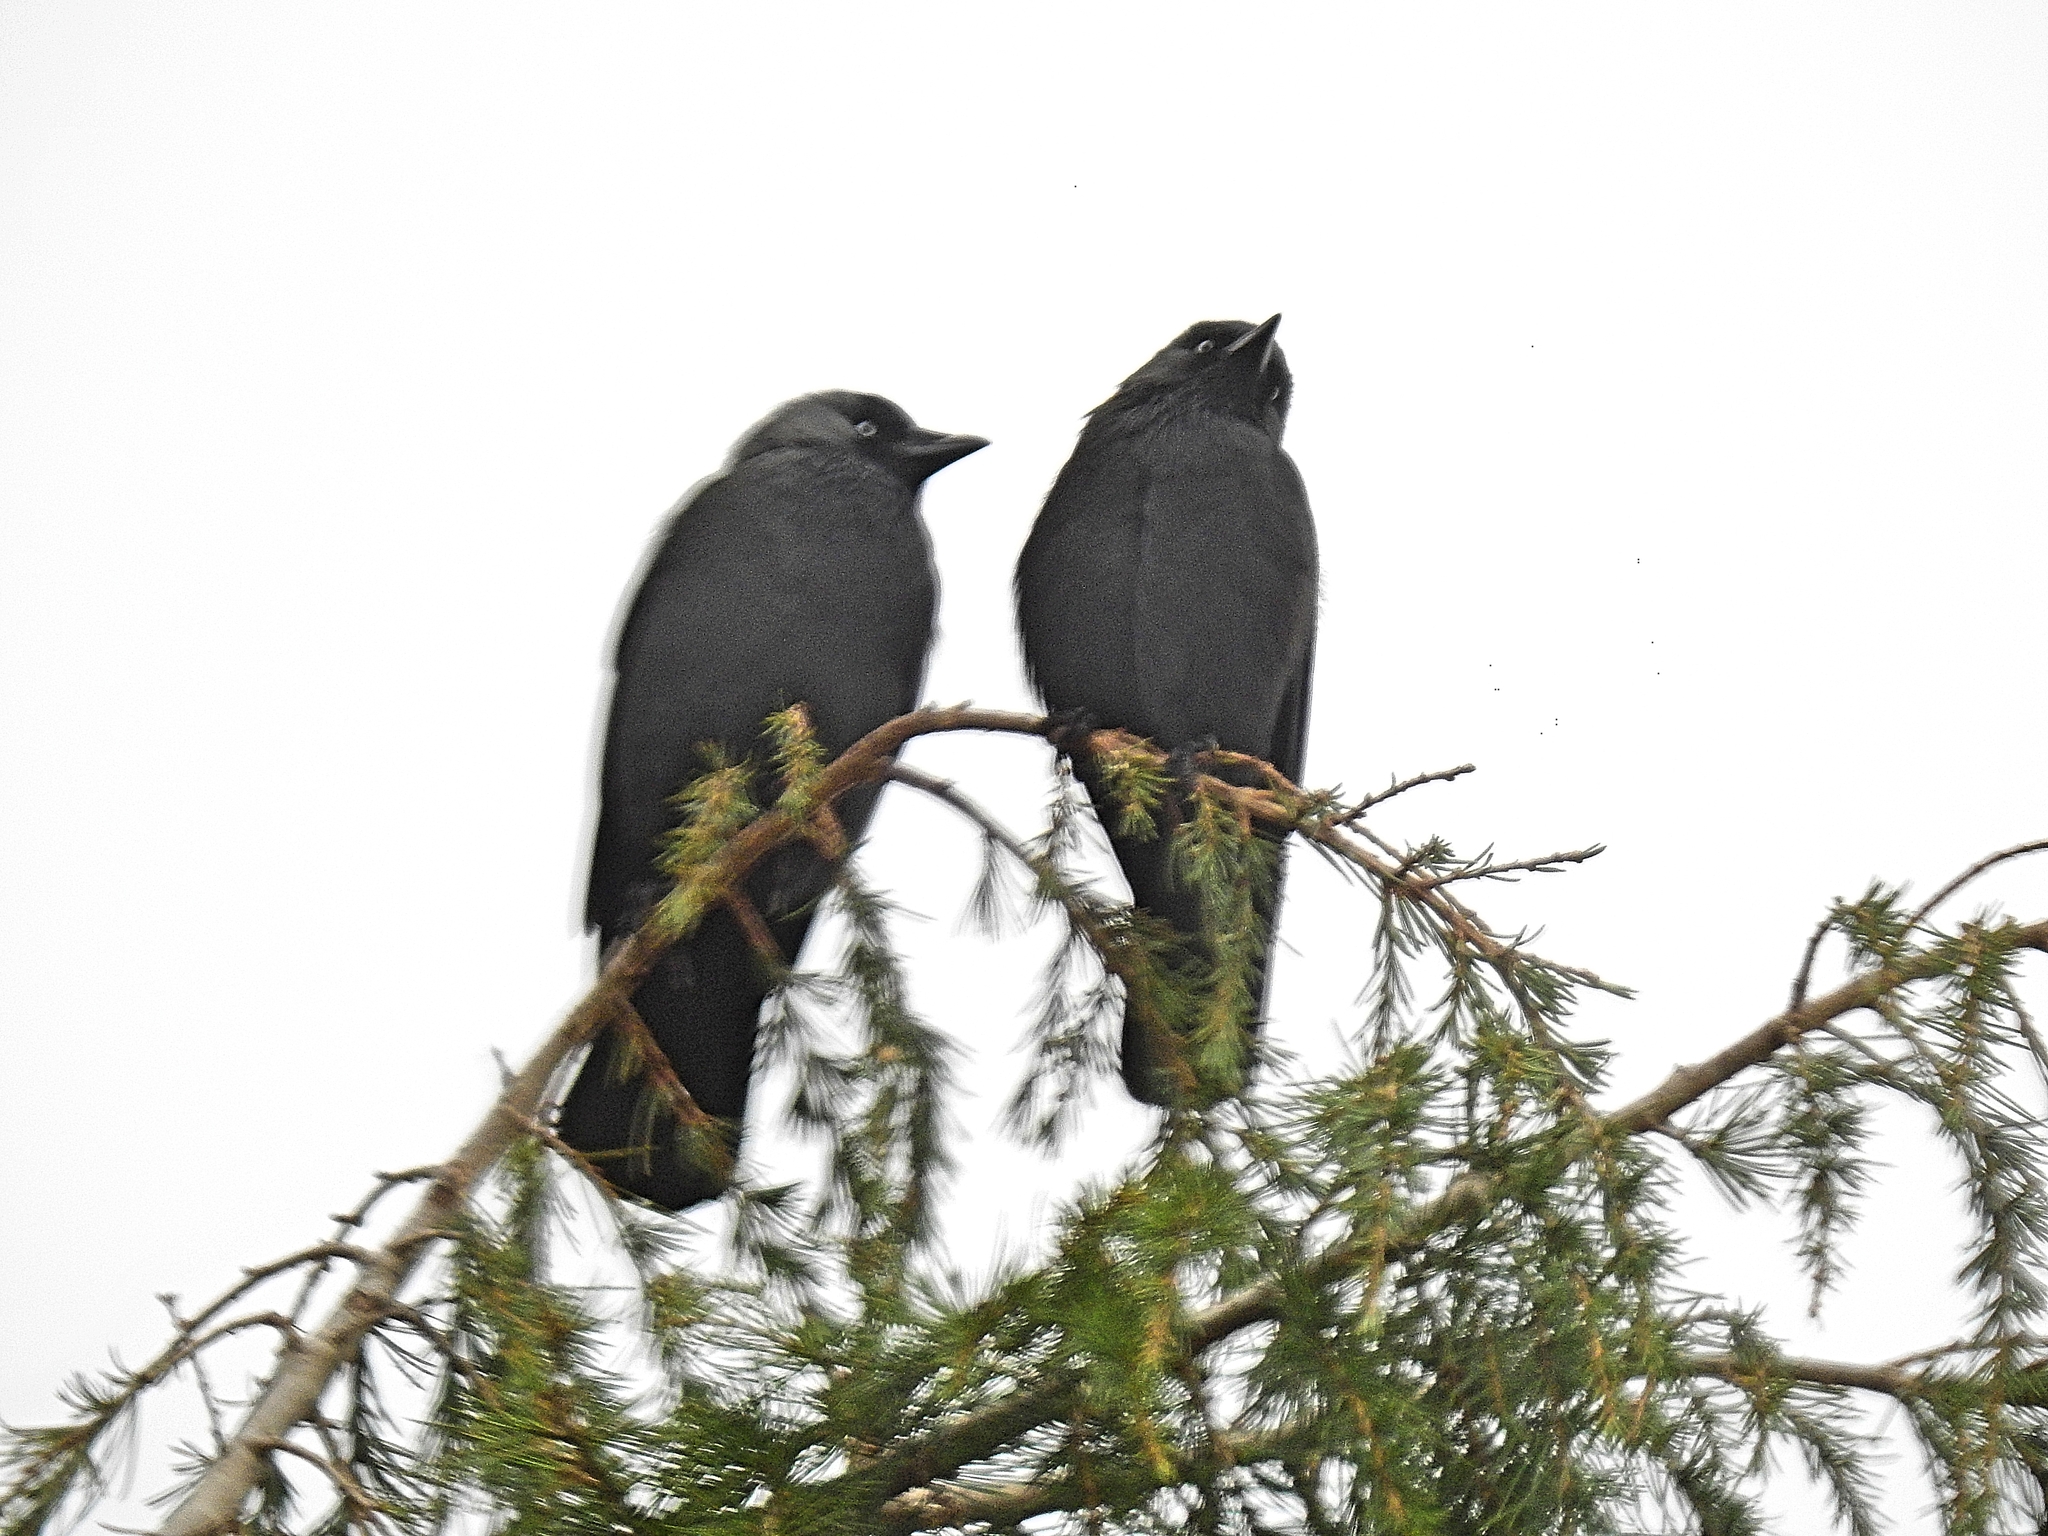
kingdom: Animalia
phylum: Chordata
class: Aves
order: Passeriformes
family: Corvidae
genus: Coloeus
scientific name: Coloeus monedula
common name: Western jackdaw
